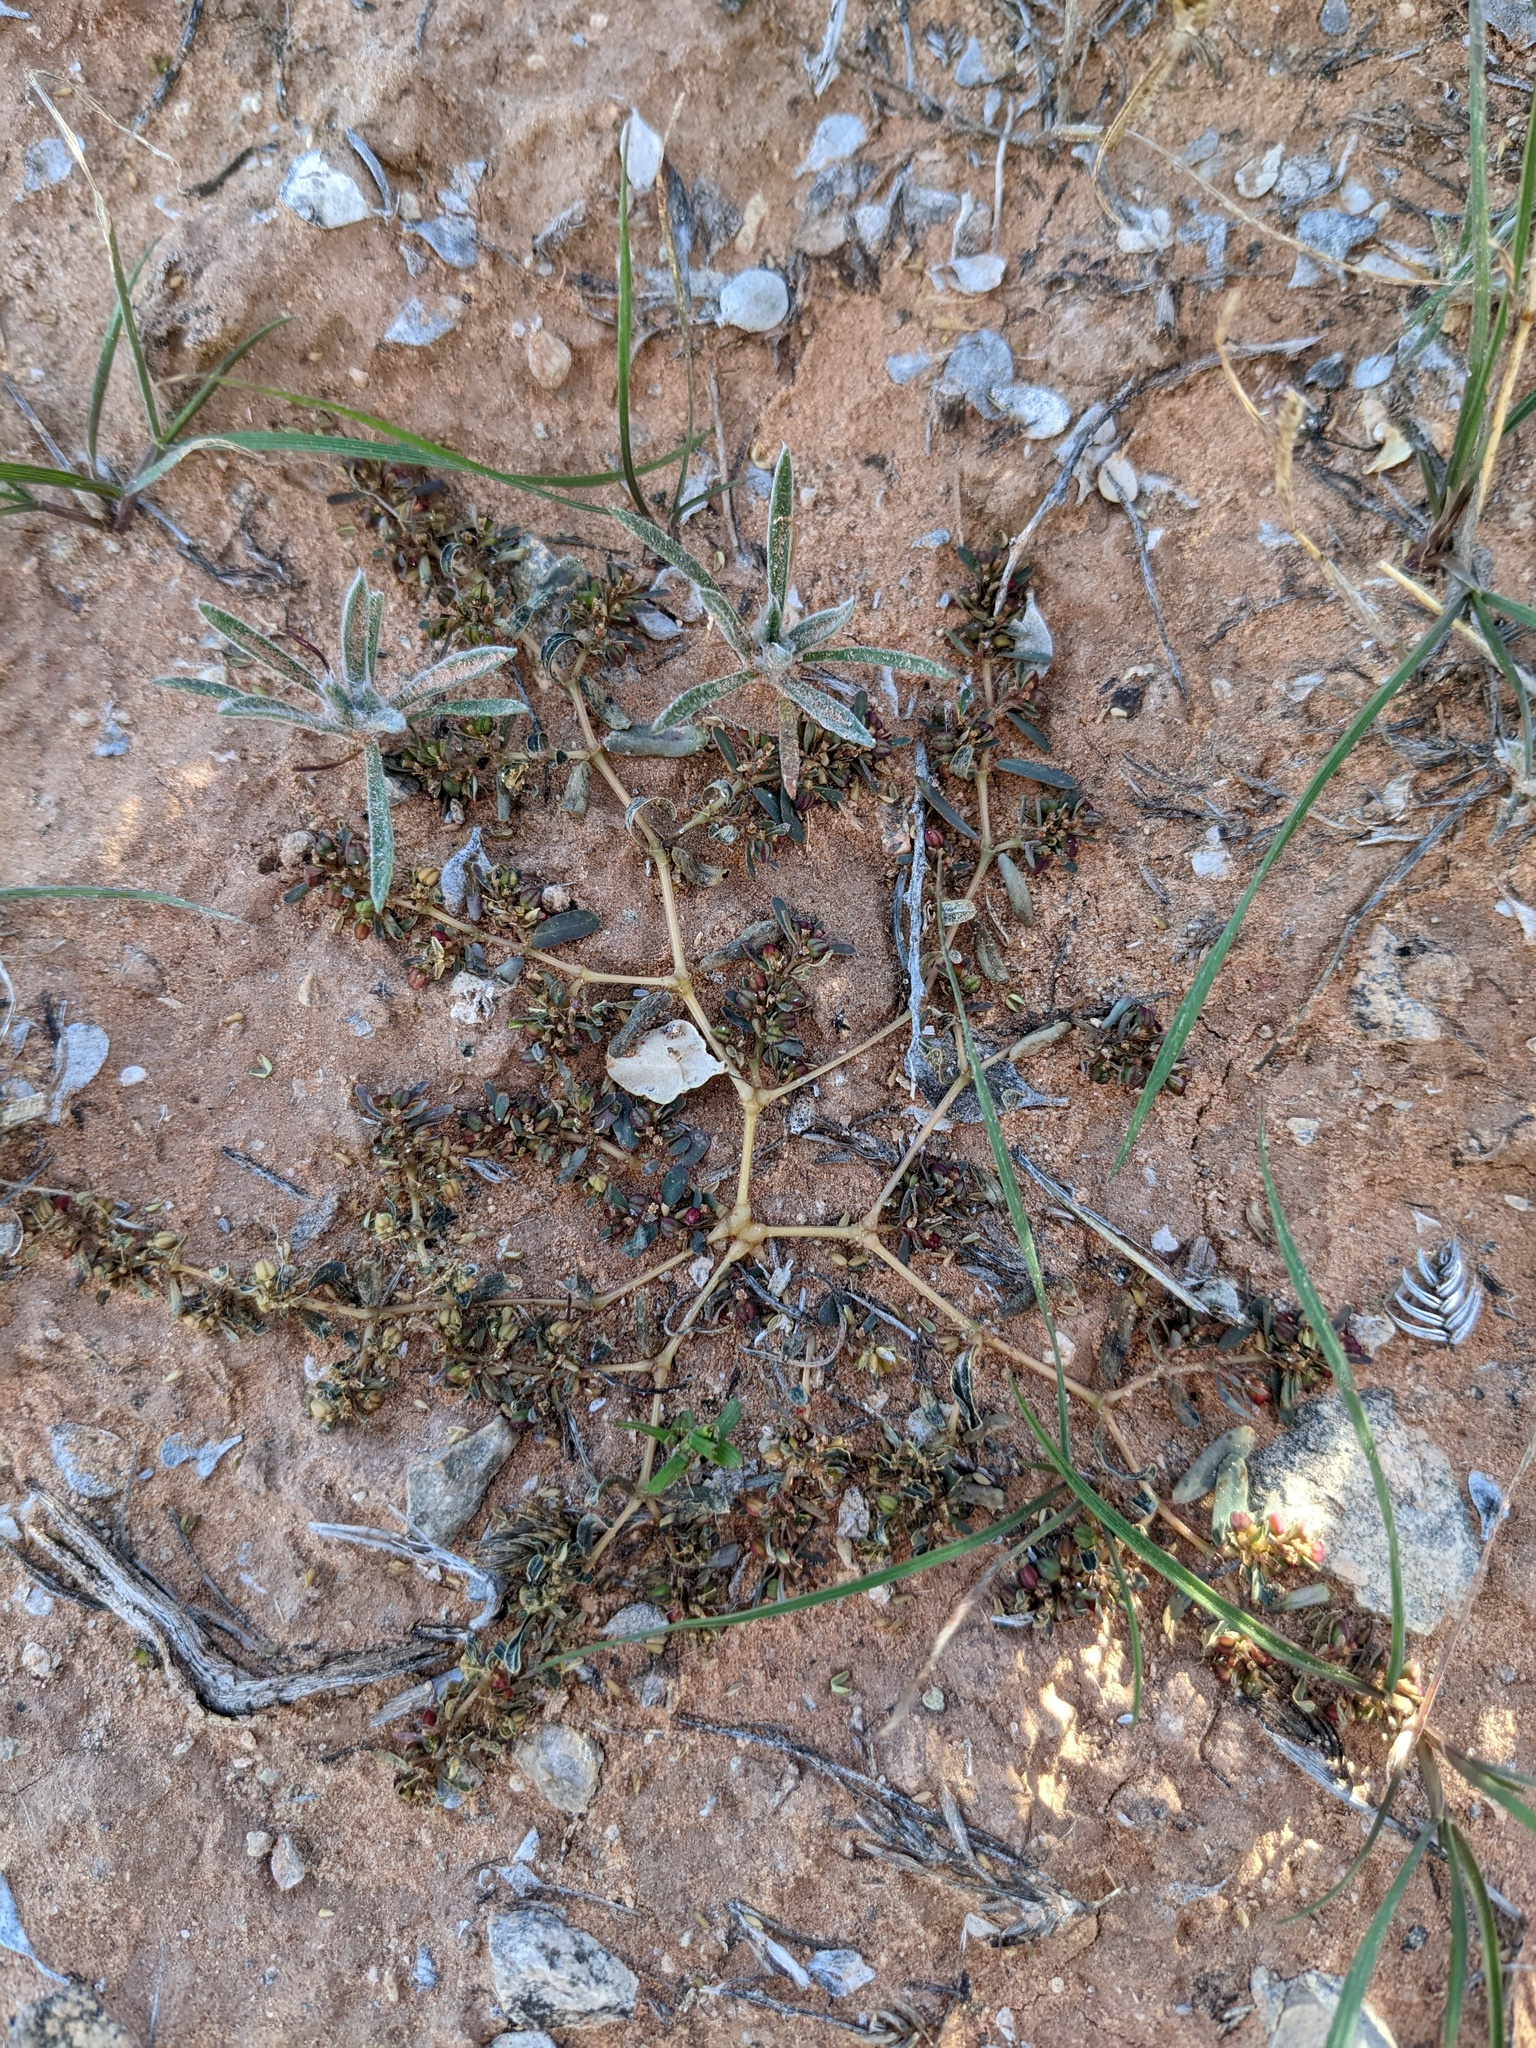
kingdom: Plantae
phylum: Tracheophyta
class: Magnoliopsida
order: Malpighiales
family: Euphorbiaceae
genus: Euphorbia
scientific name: Euphorbia serpillifolia
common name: Thyme-leaf spurge
